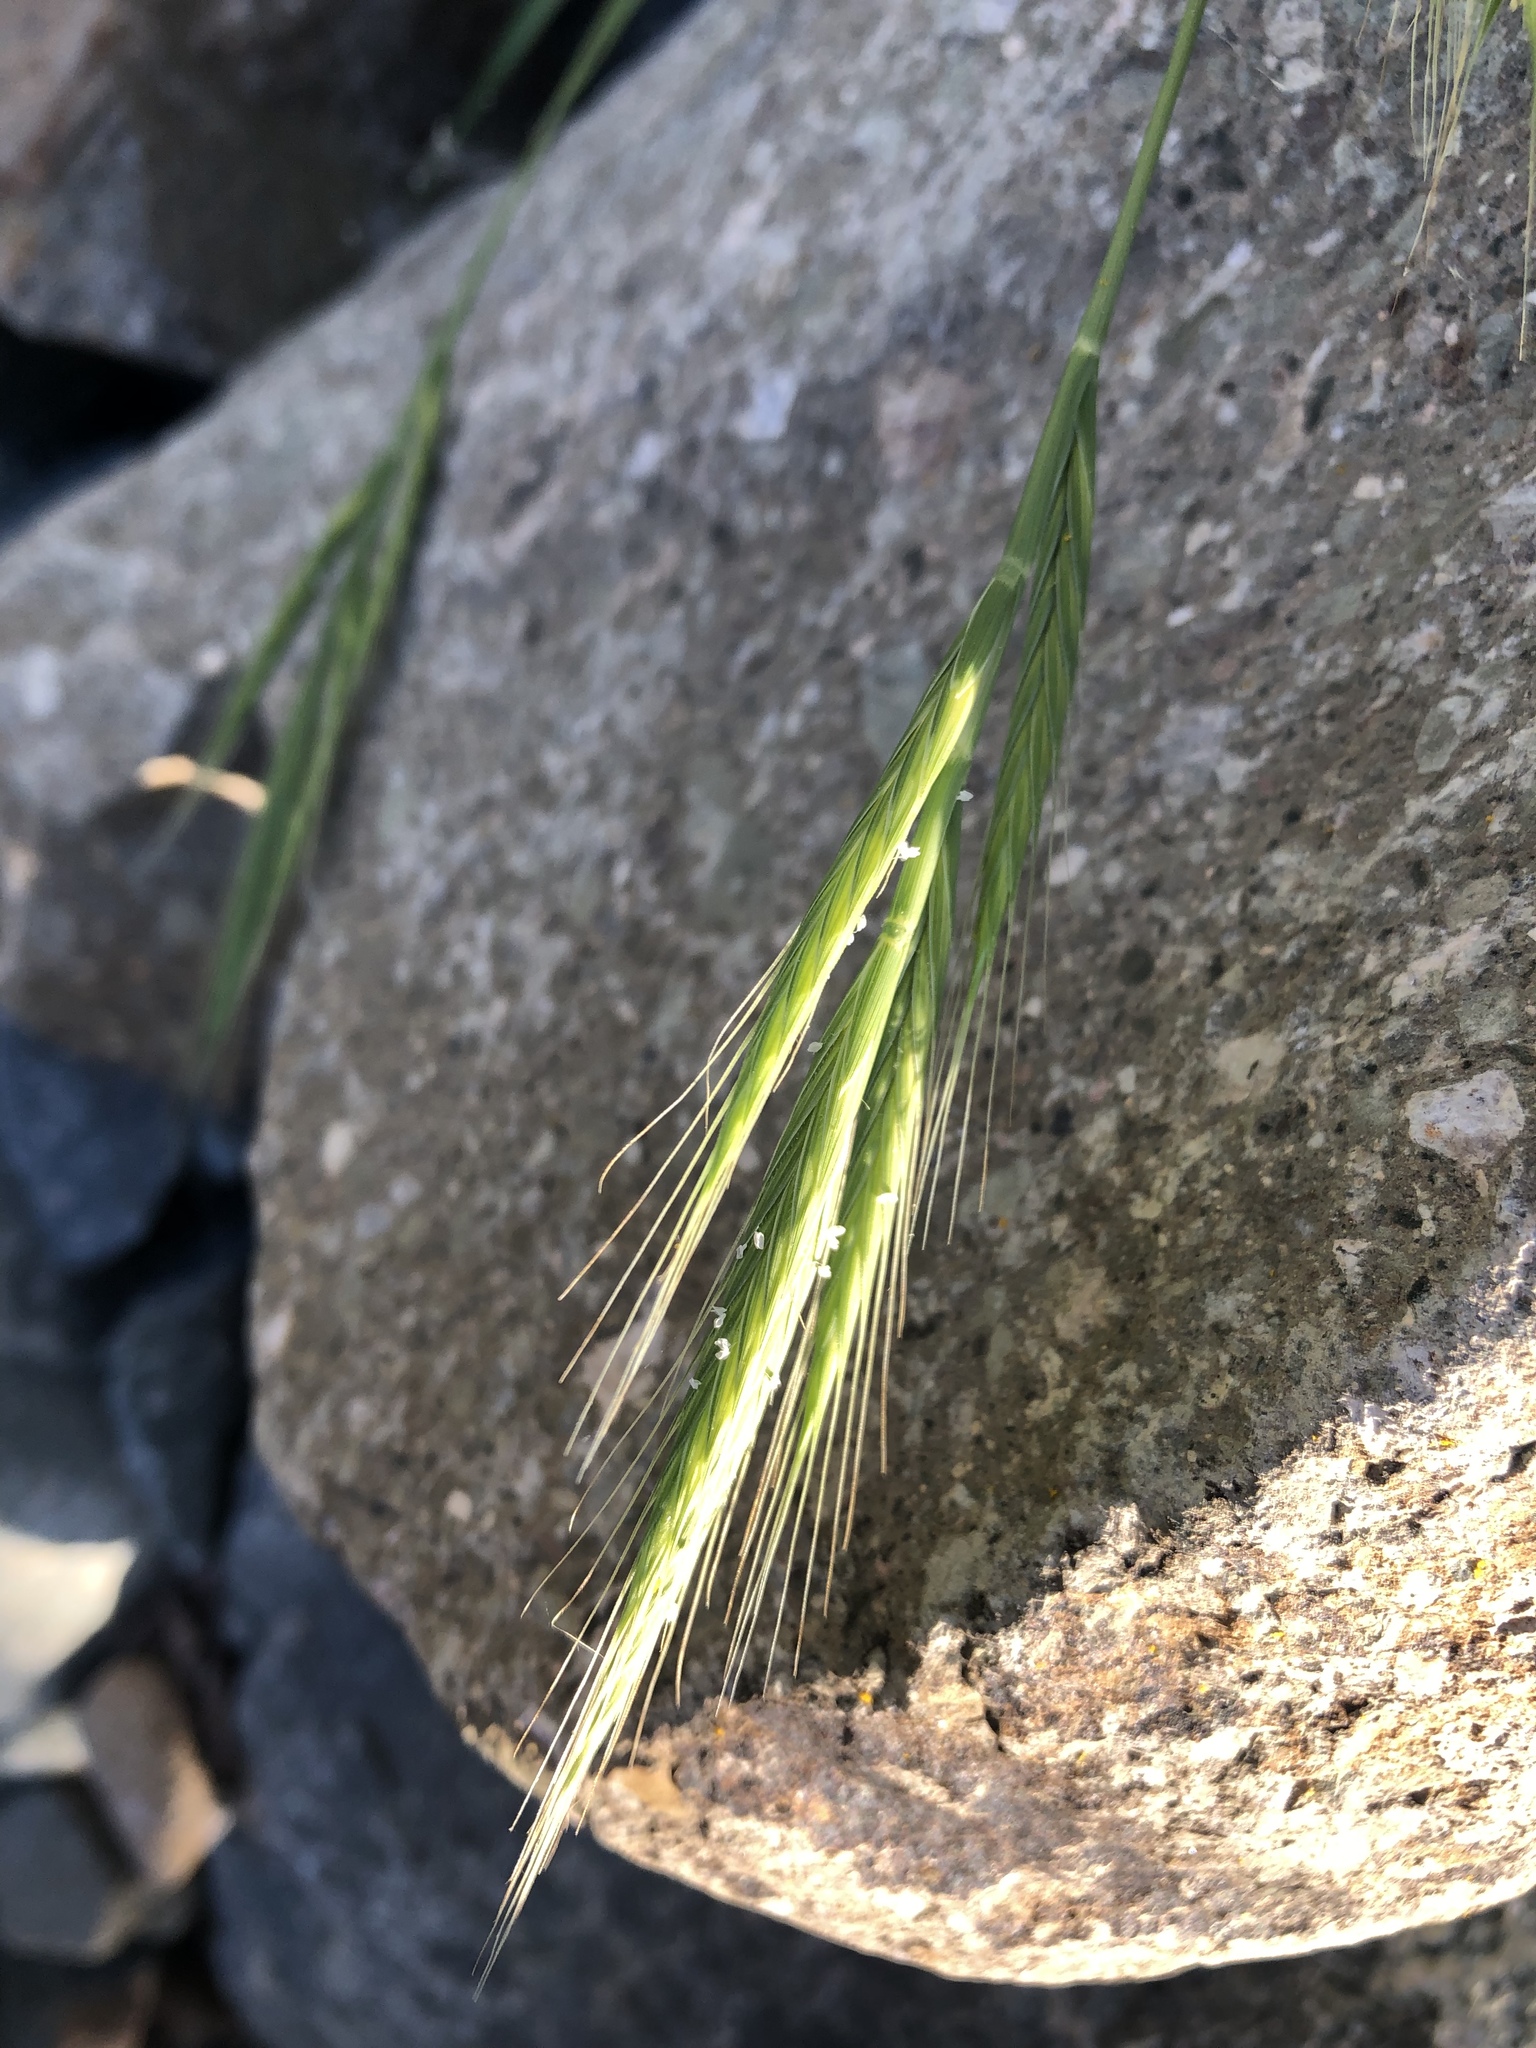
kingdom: Plantae
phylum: Tracheophyta
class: Liliopsida
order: Poales
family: Poaceae
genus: Brachypodium
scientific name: Brachypodium distachyon
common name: Stiff brome
